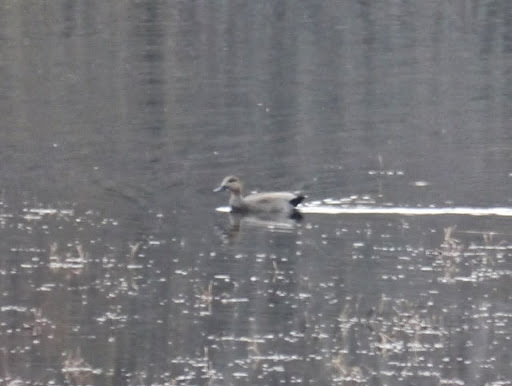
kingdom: Animalia
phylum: Chordata
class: Aves
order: Anseriformes
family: Anatidae
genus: Mareca
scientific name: Mareca strepera
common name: Gadwall
